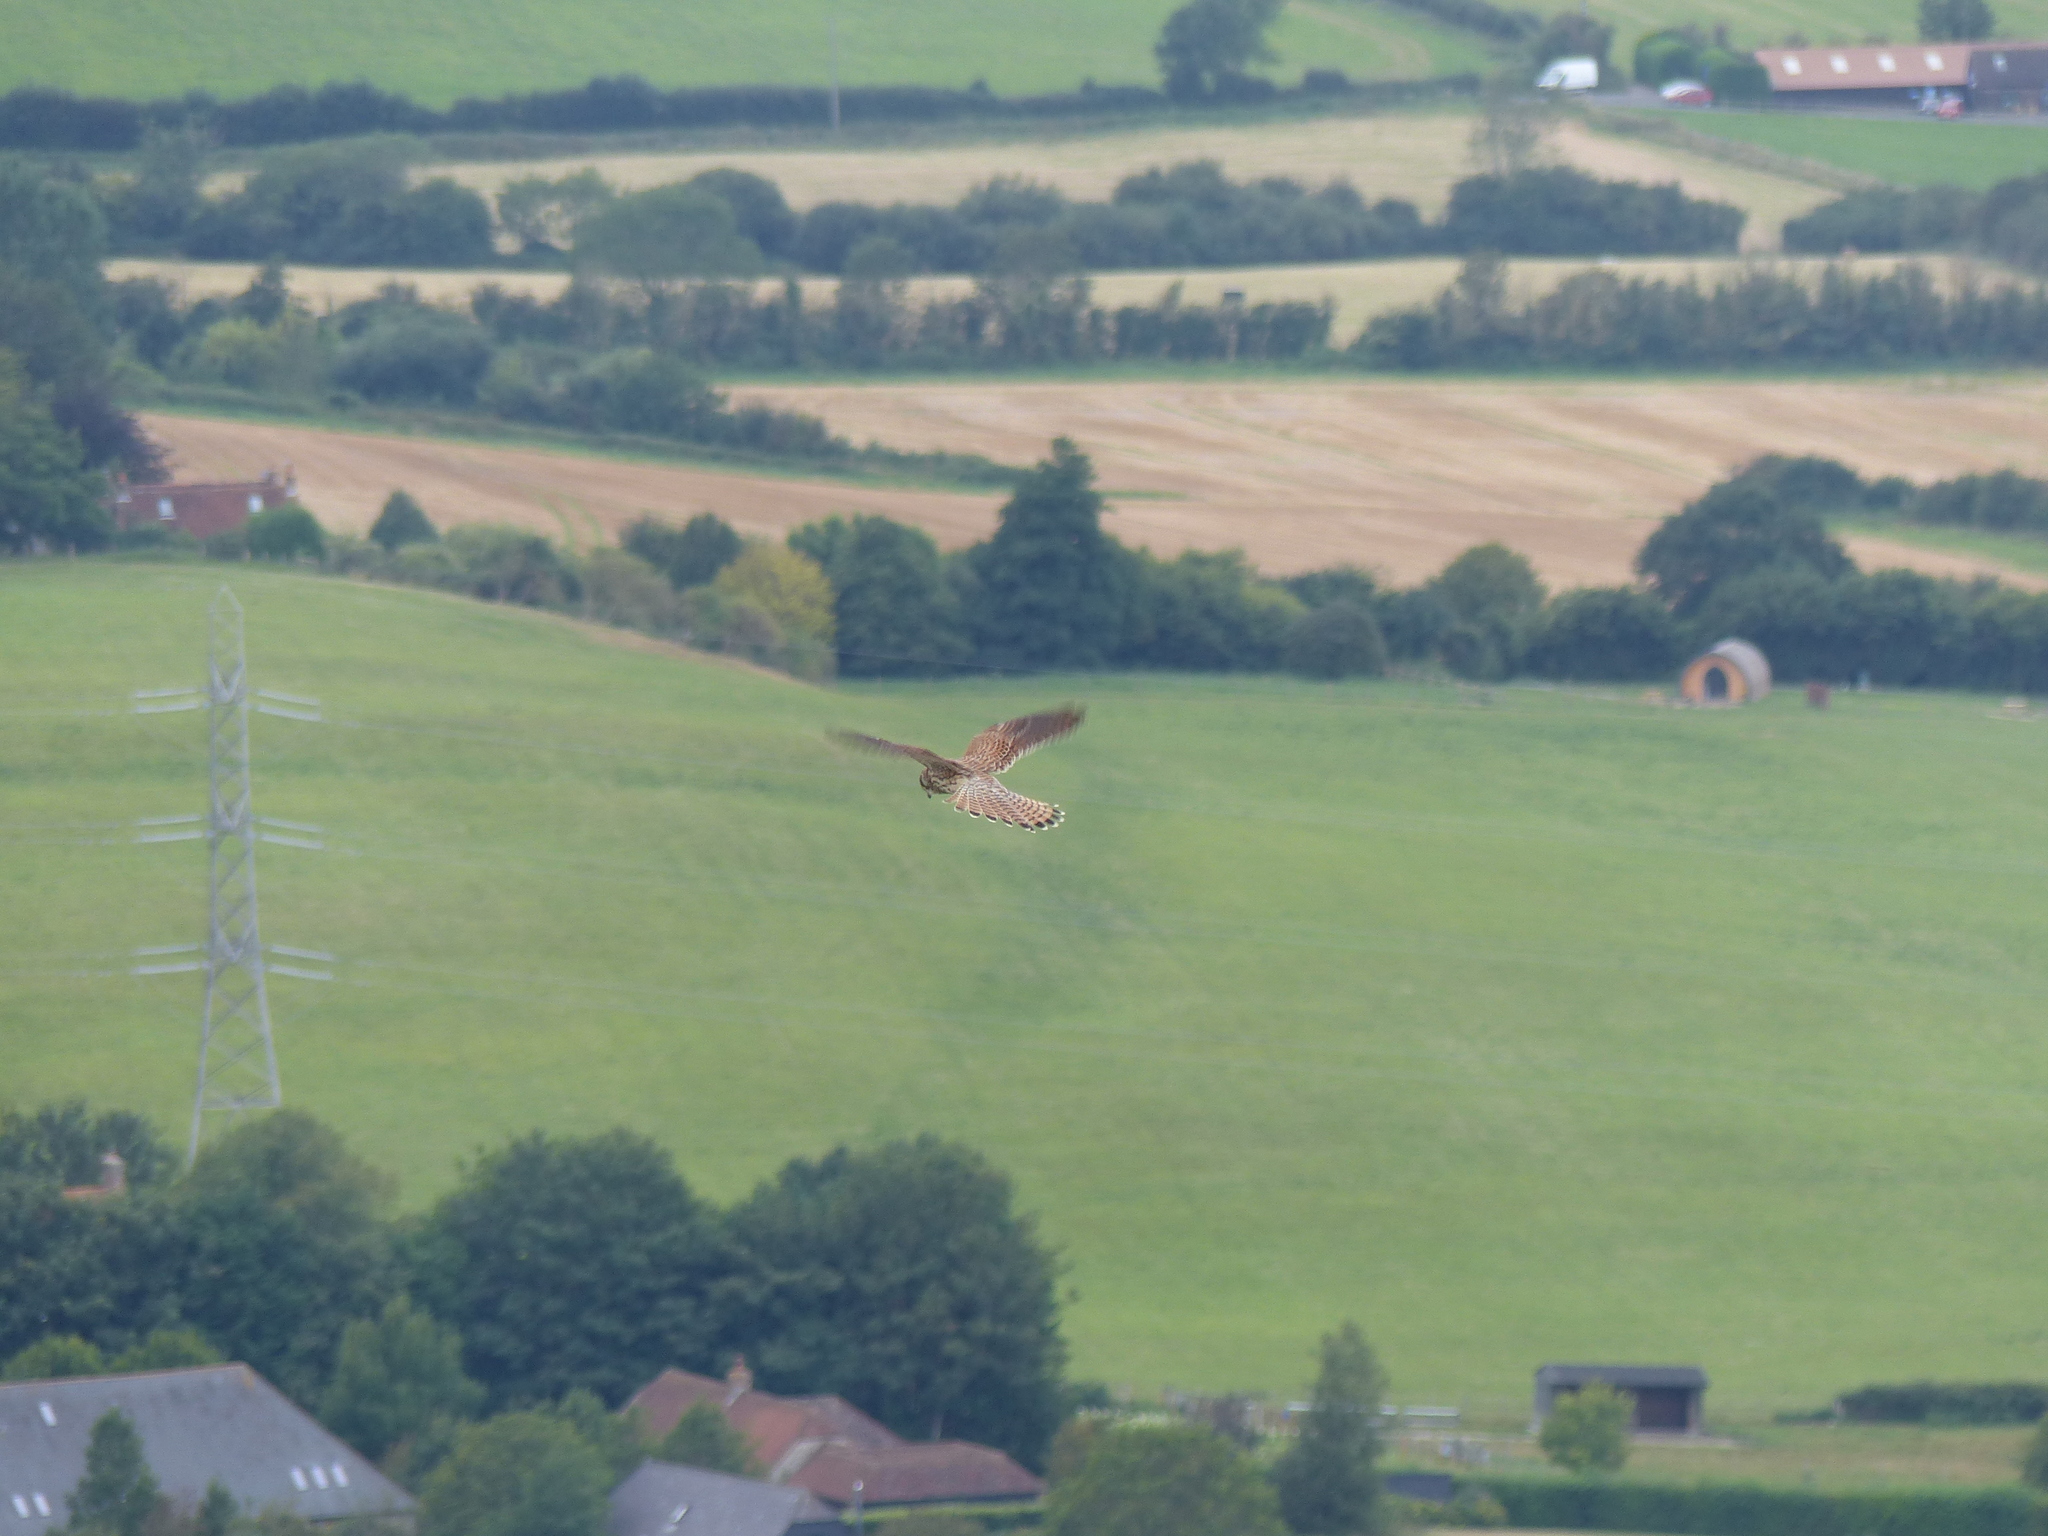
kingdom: Animalia
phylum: Chordata
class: Aves
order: Falconiformes
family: Falconidae
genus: Falco
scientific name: Falco tinnunculus
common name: Common kestrel
